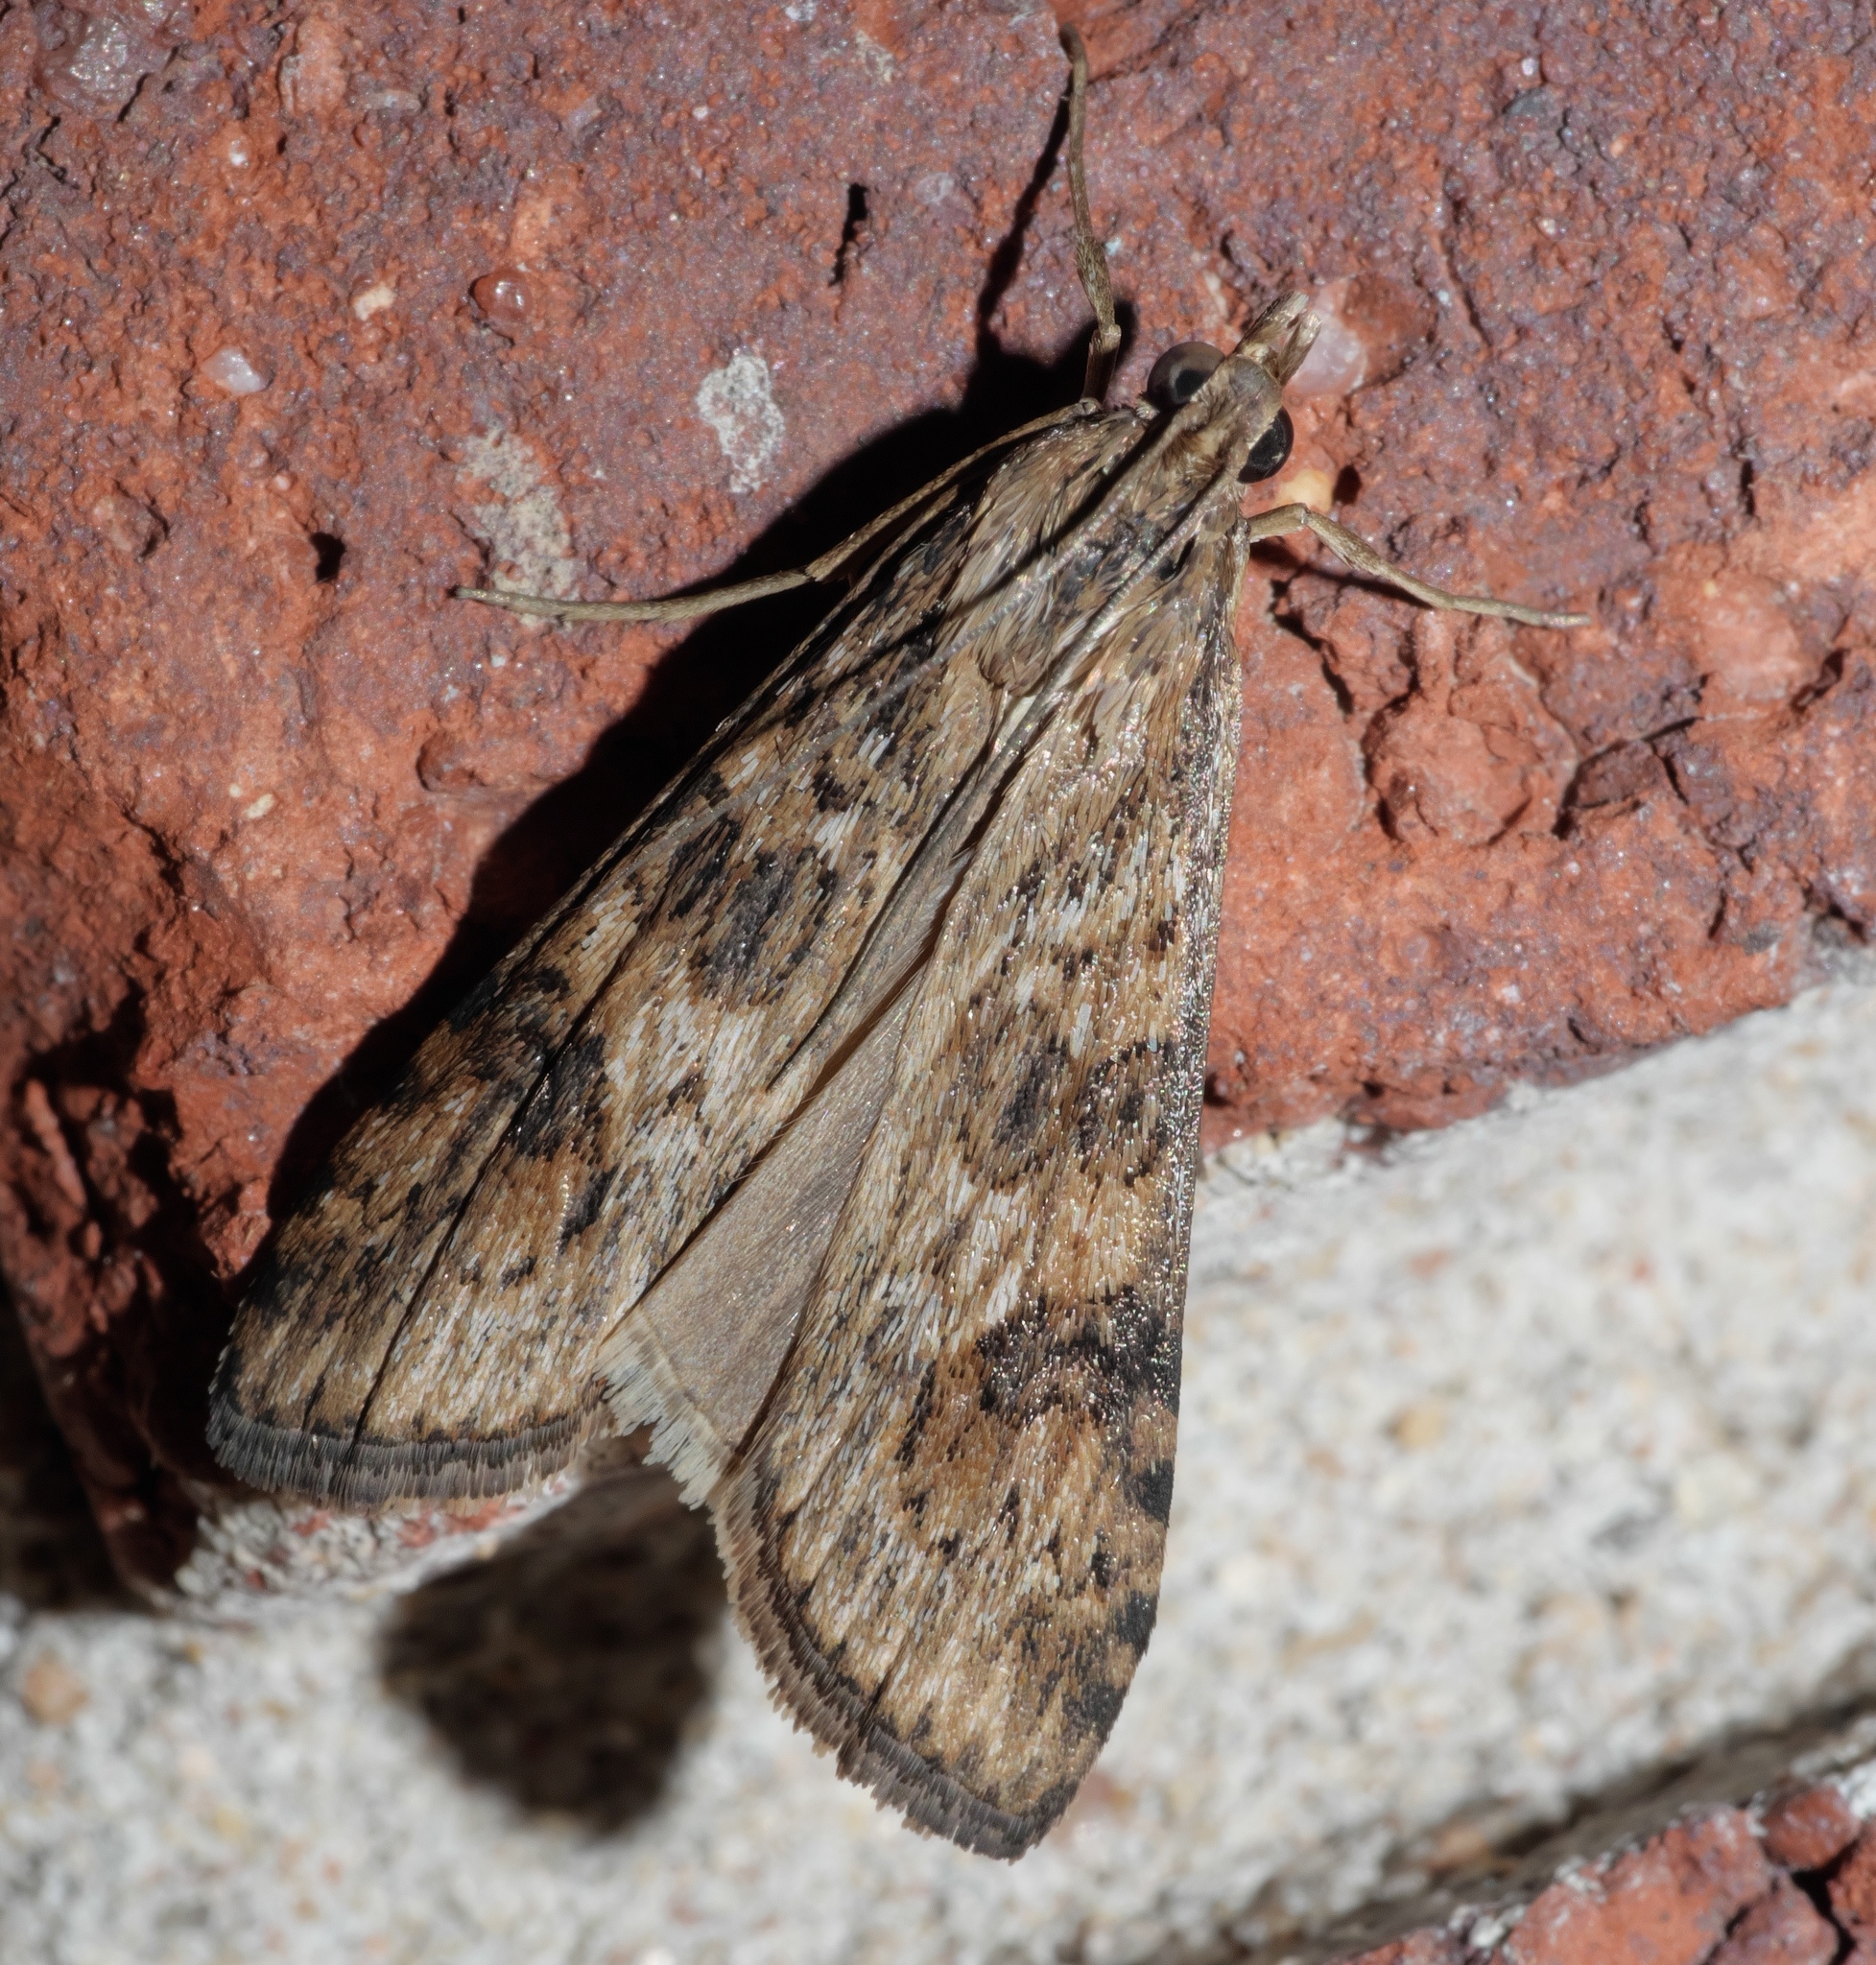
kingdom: Animalia
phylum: Arthropoda
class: Insecta
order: Lepidoptera
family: Crambidae
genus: Nomophila
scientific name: Nomophila nearctica
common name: American rush veneer
